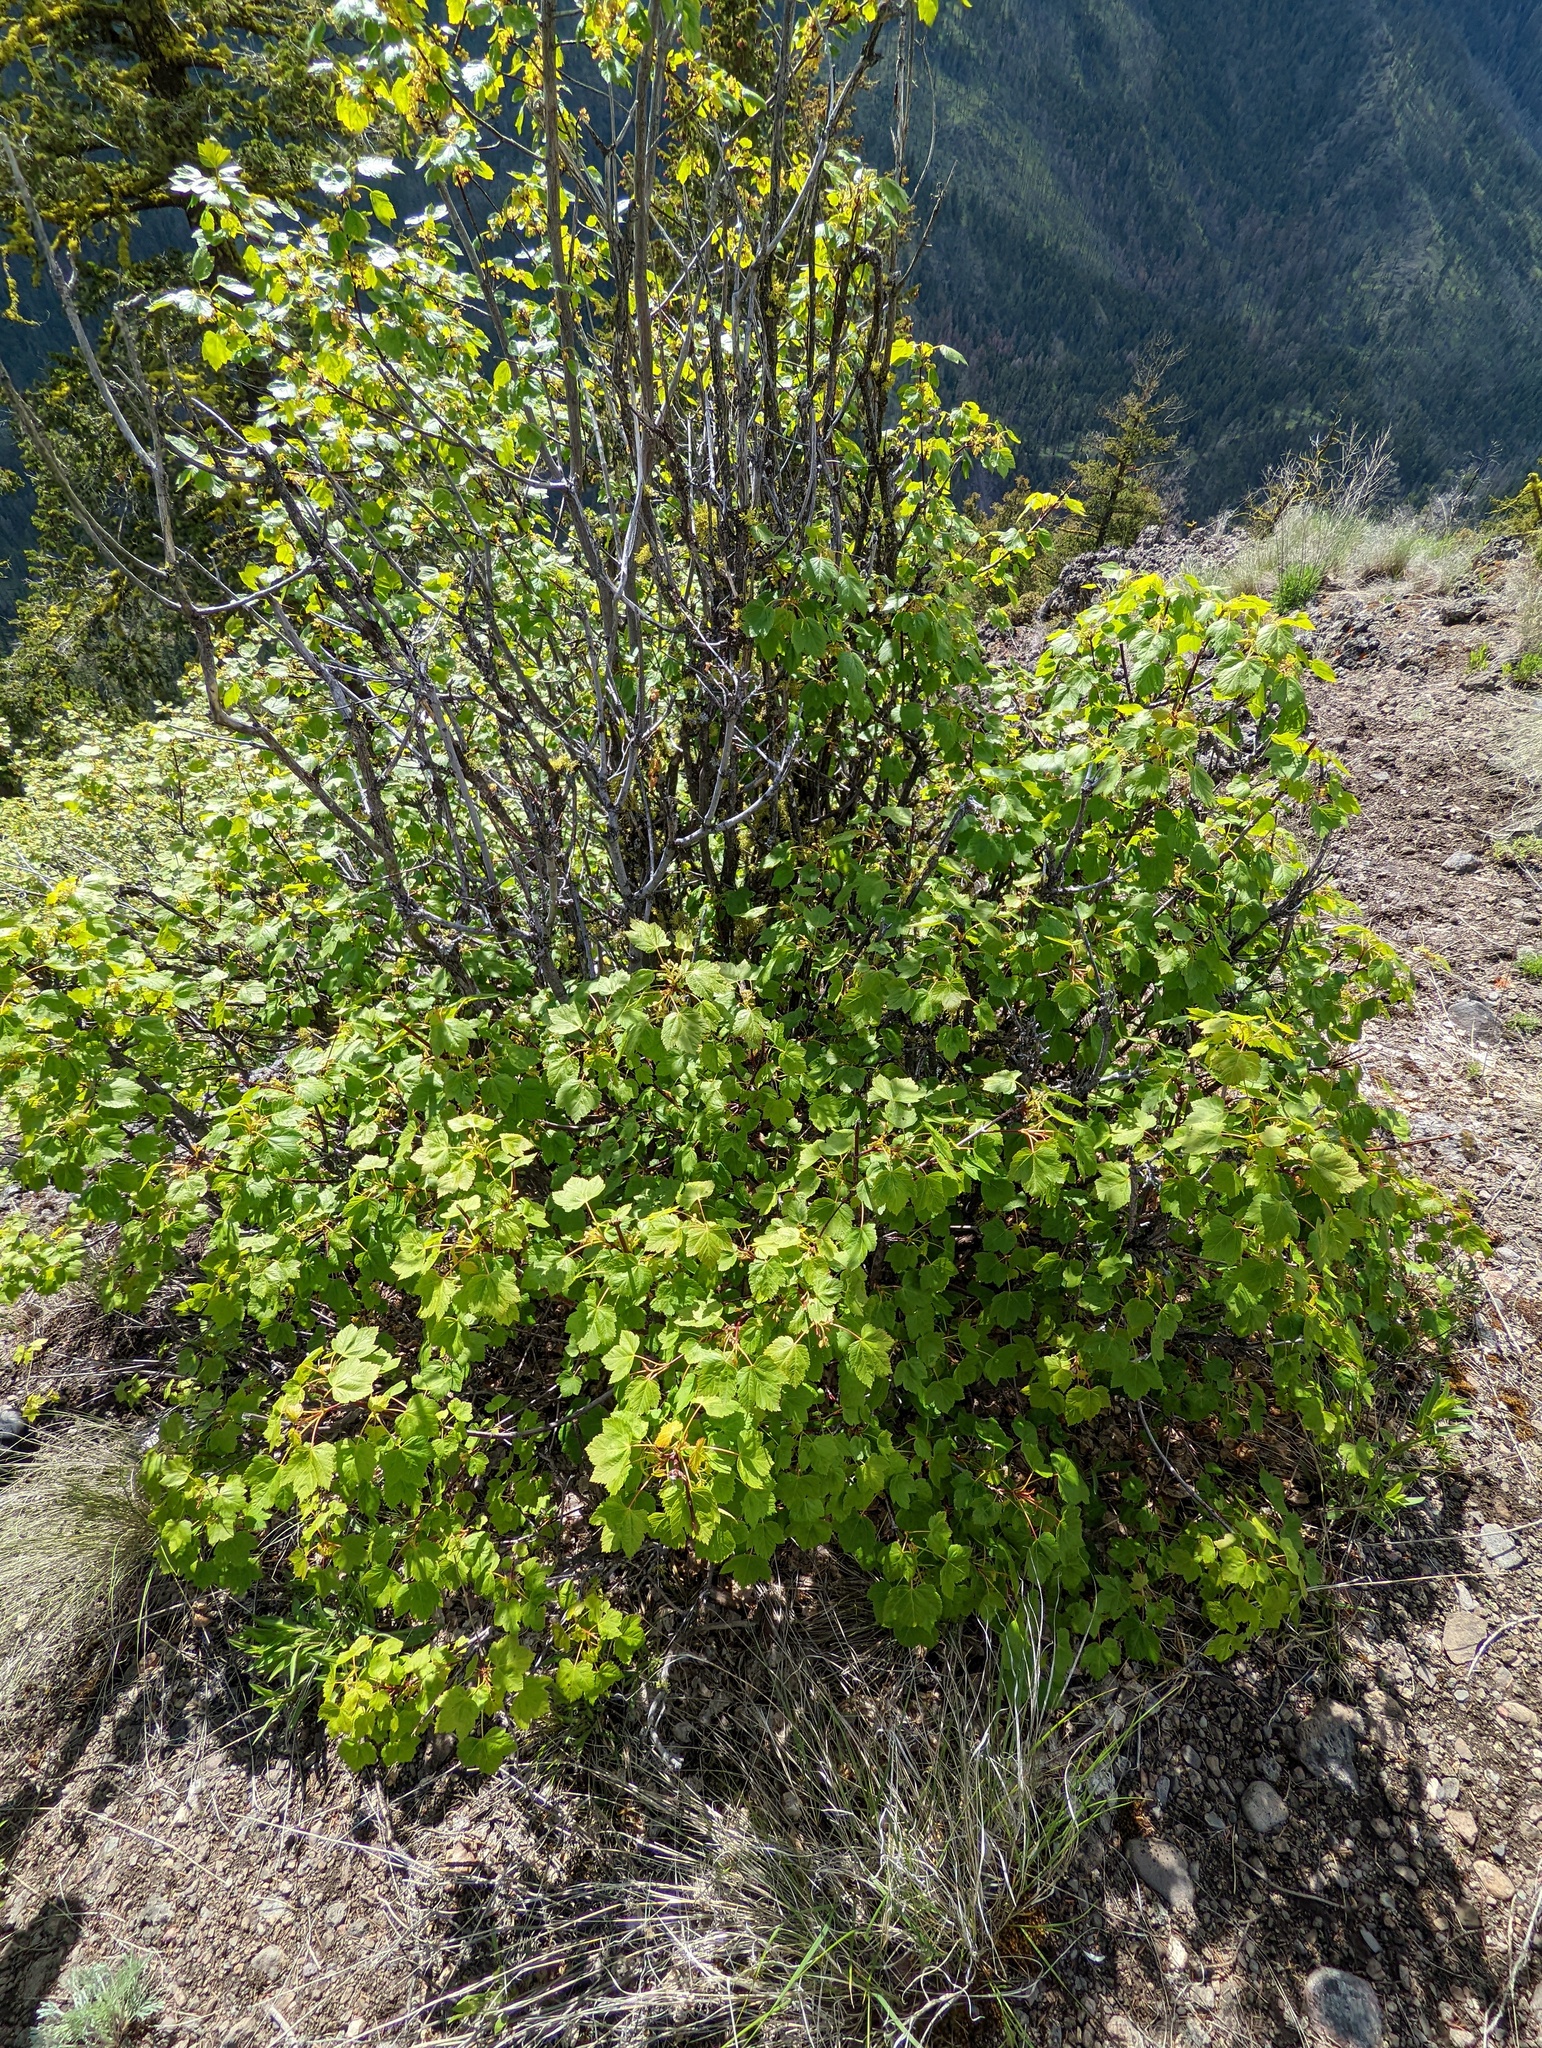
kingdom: Plantae
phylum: Tracheophyta
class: Magnoliopsida
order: Sapindales
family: Sapindaceae
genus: Acer
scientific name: Acer glabrum
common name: Rocky mountain maple
